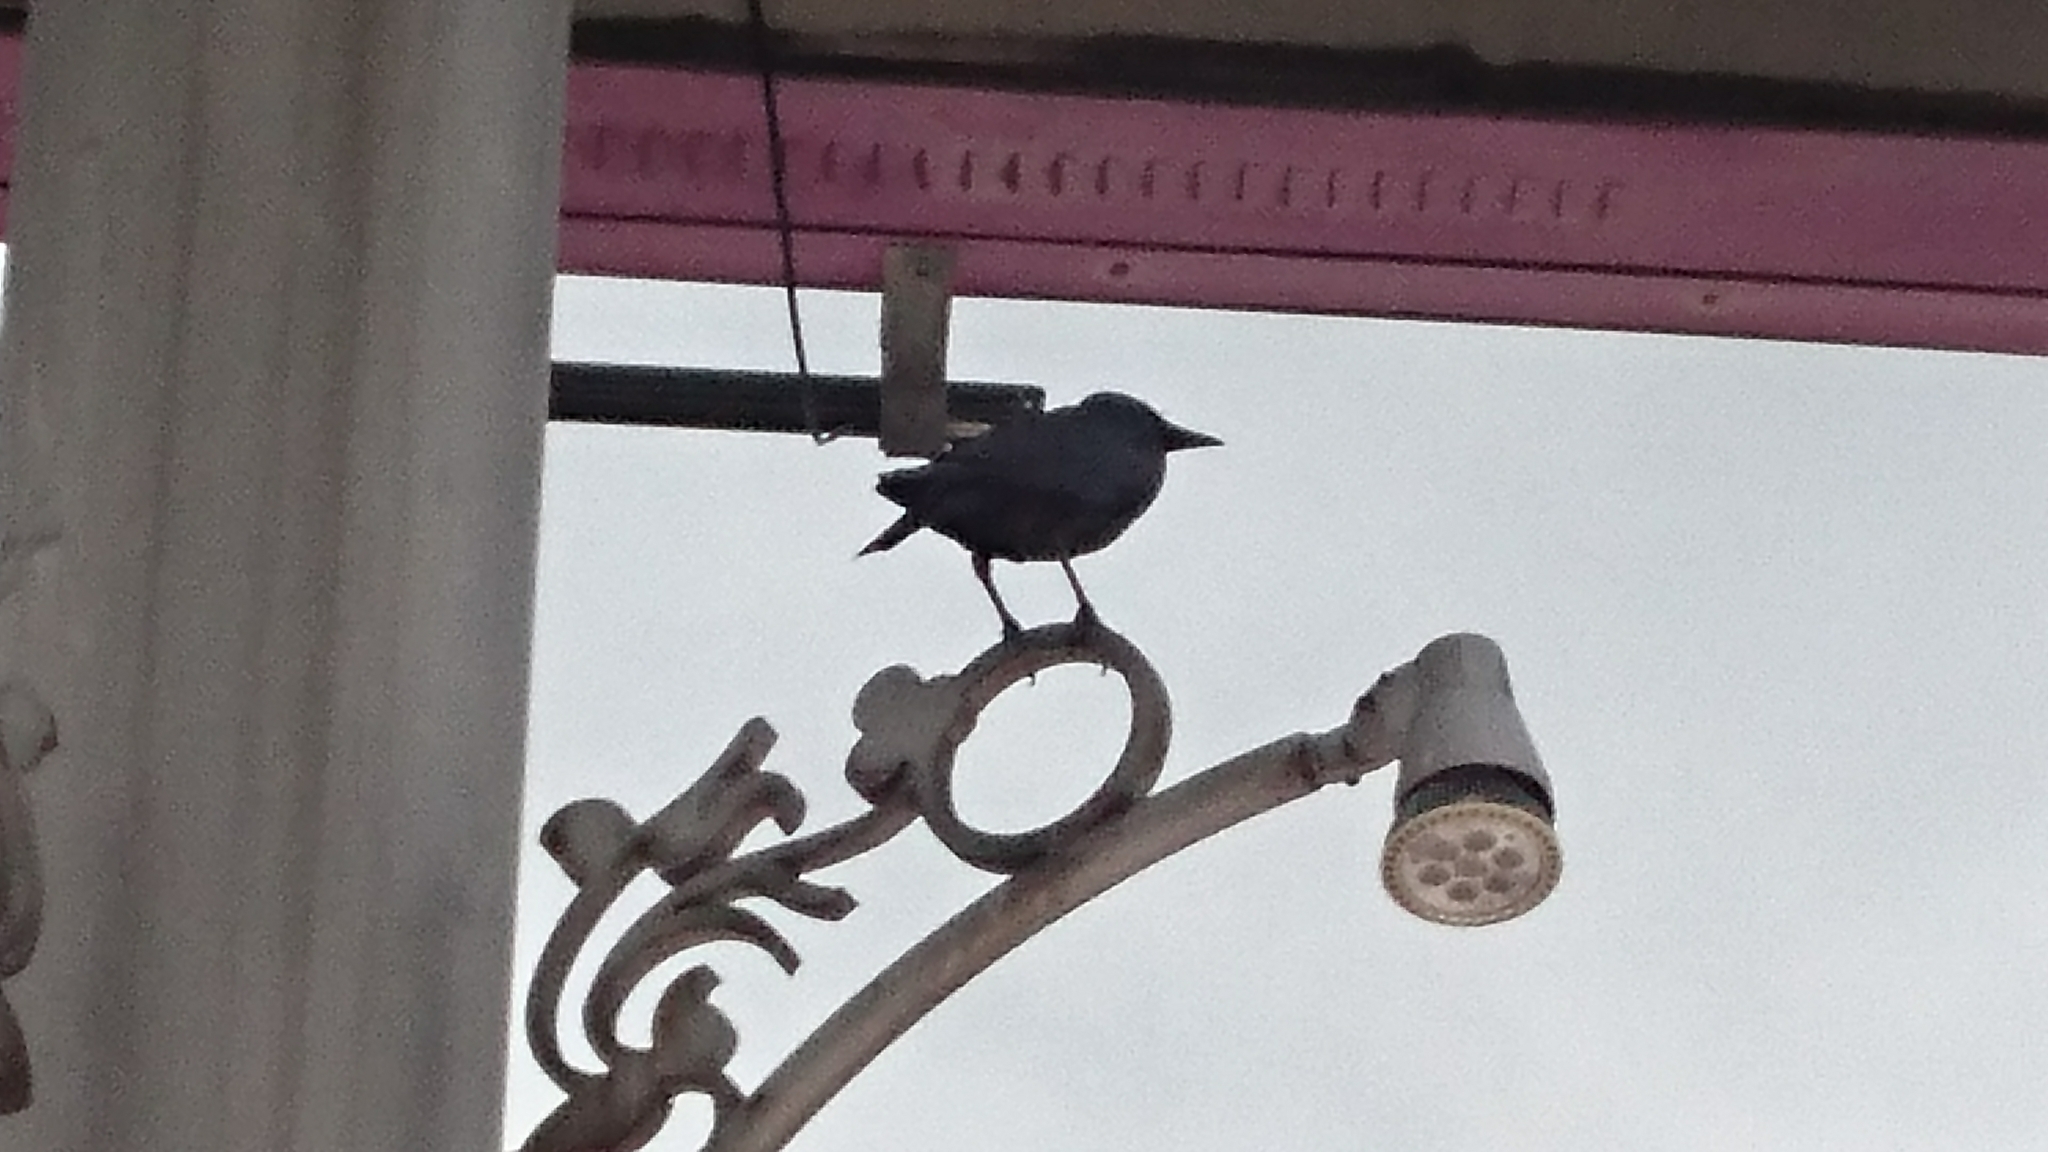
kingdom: Animalia
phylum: Chordata
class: Aves
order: Passeriformes
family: Corvidae
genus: Corvus
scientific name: Corvus splendens
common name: House crow
